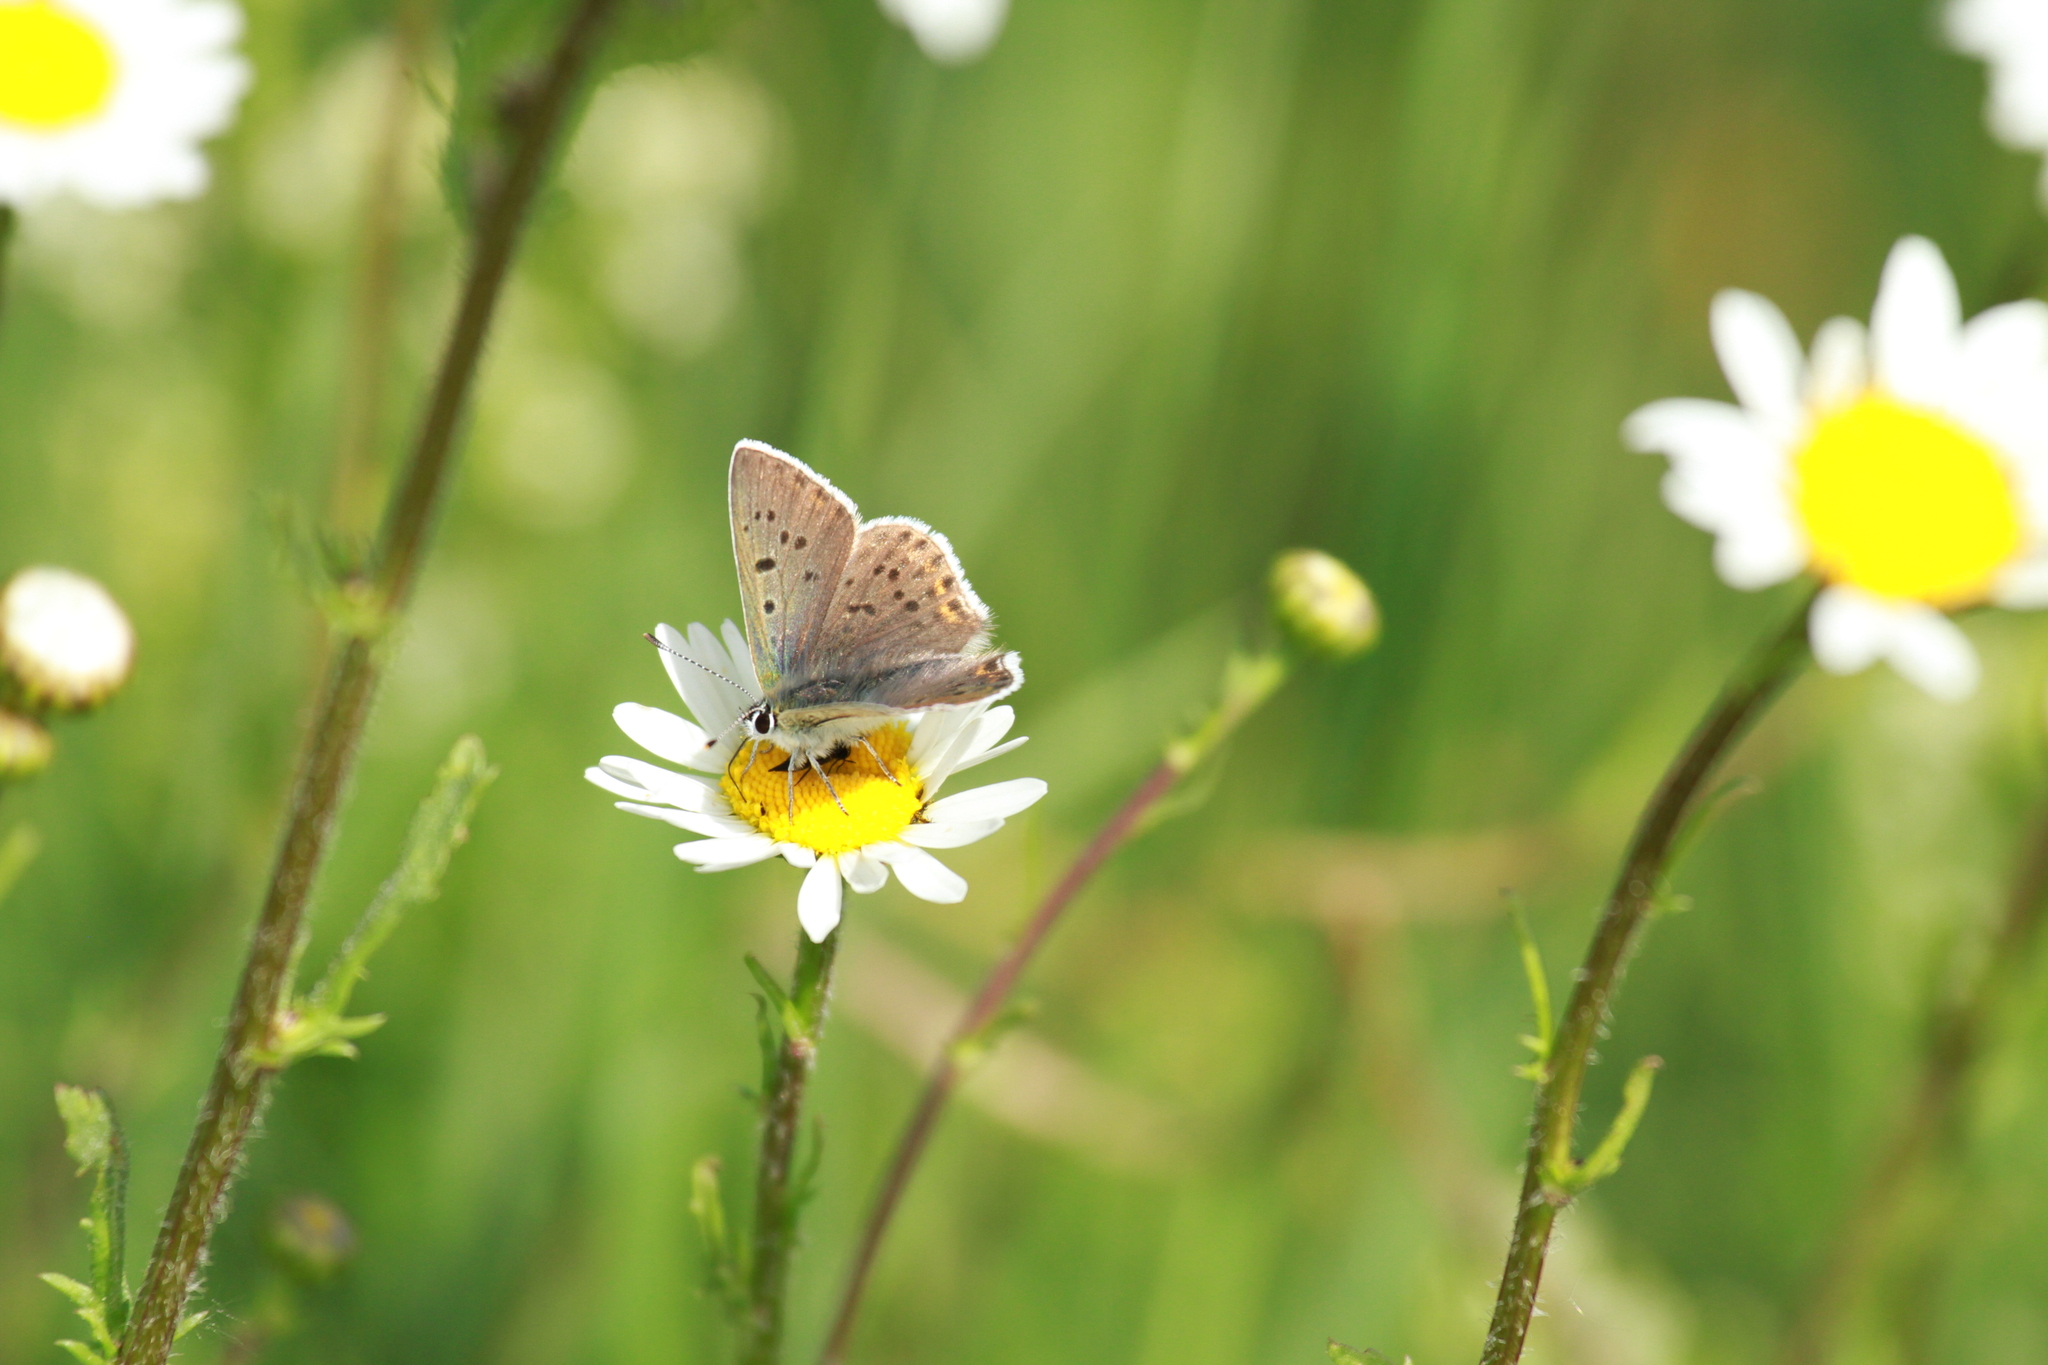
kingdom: Animalia
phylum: Arthropoda
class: Insecta
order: Lepidoptera
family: Lycaenidae
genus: Loweia
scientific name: Loweia tityrus
